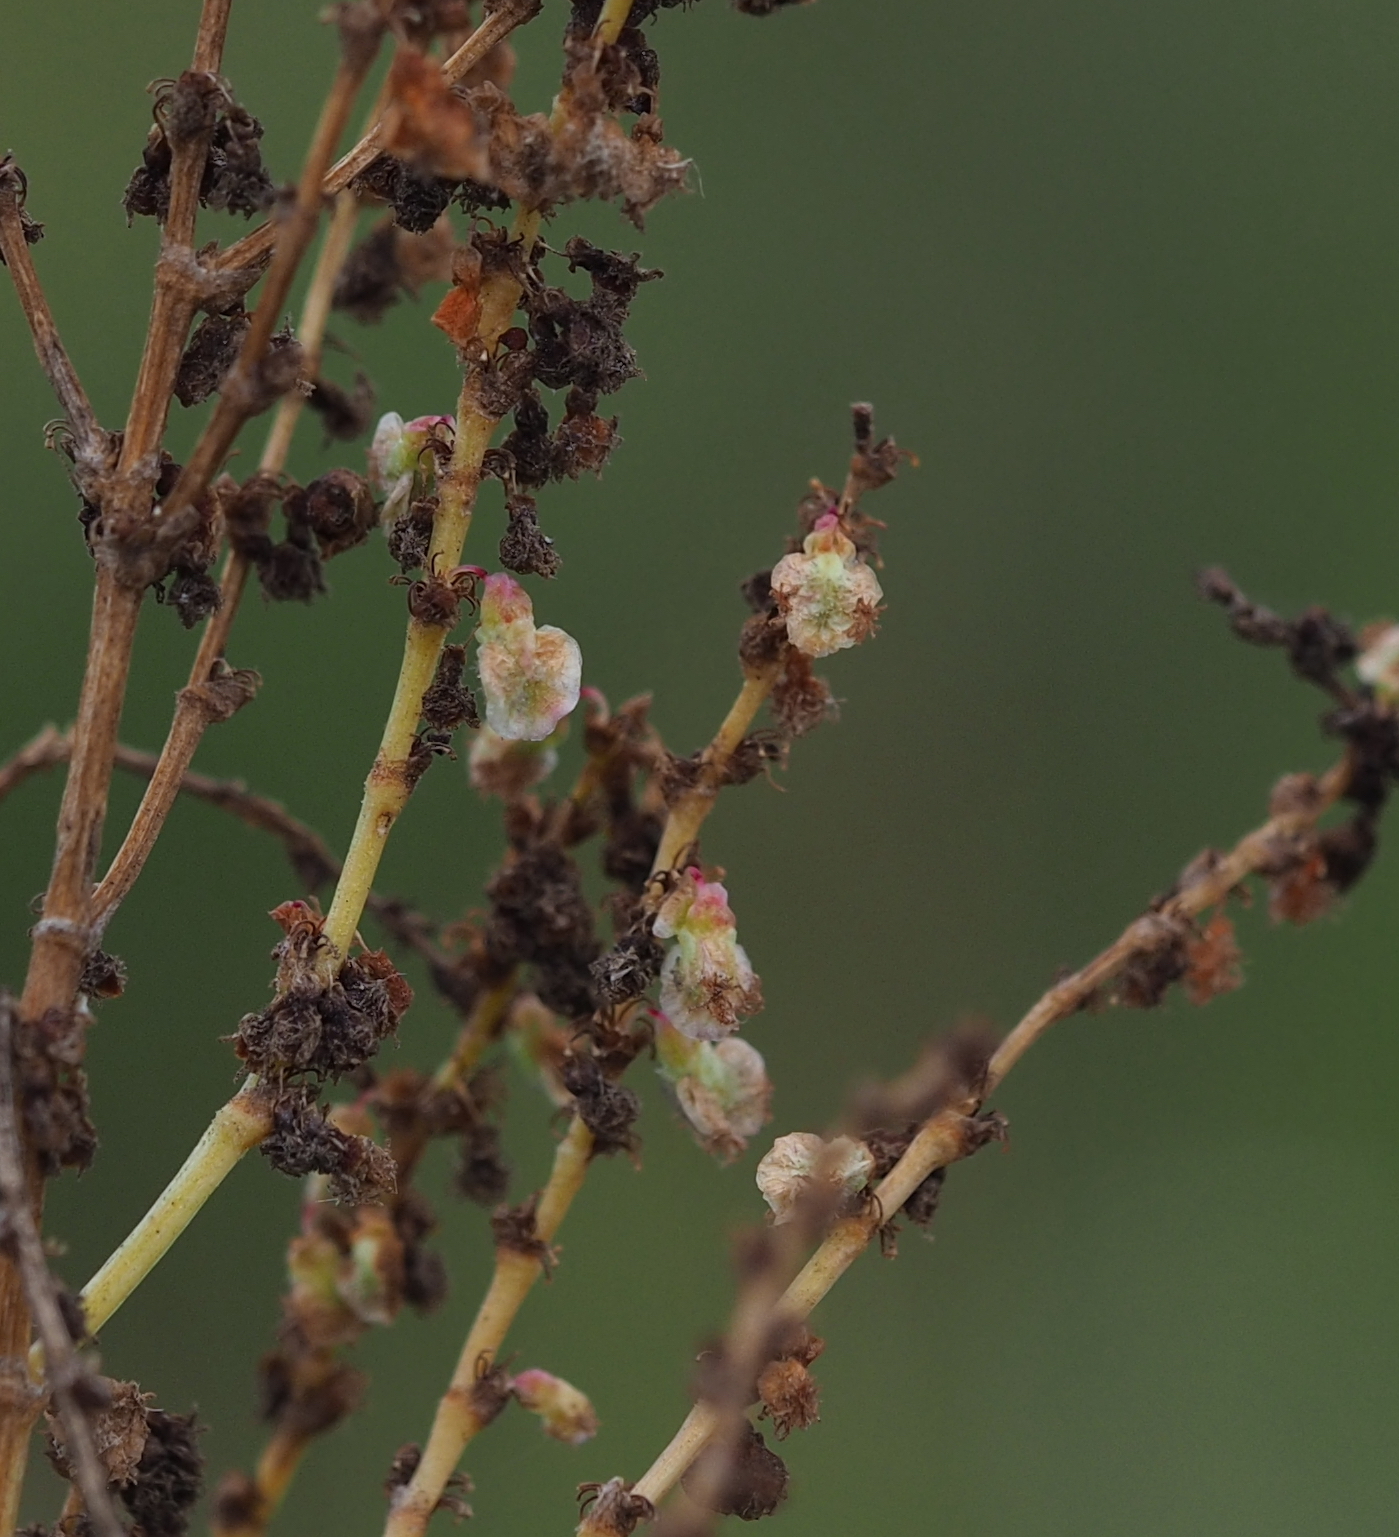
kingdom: Plantae
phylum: Tracheophyta
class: Magnoliopsida
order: Caryophyllales
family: Polygonaceae
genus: Rumex
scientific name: Rumex thyrsiflorus
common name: Garden sorrel
